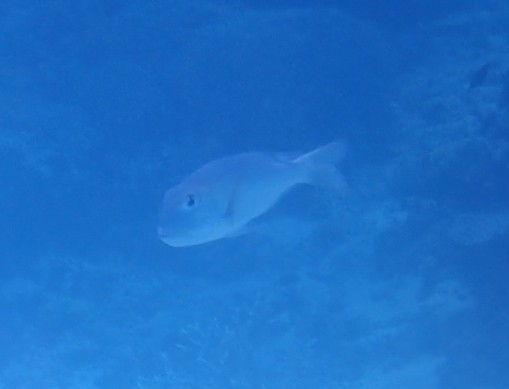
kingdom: Animalia
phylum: Chordata
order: Perciformes
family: Lethrinidae
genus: Monotaxis
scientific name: Monotaxis grandoculis
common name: Bigeye emperor
